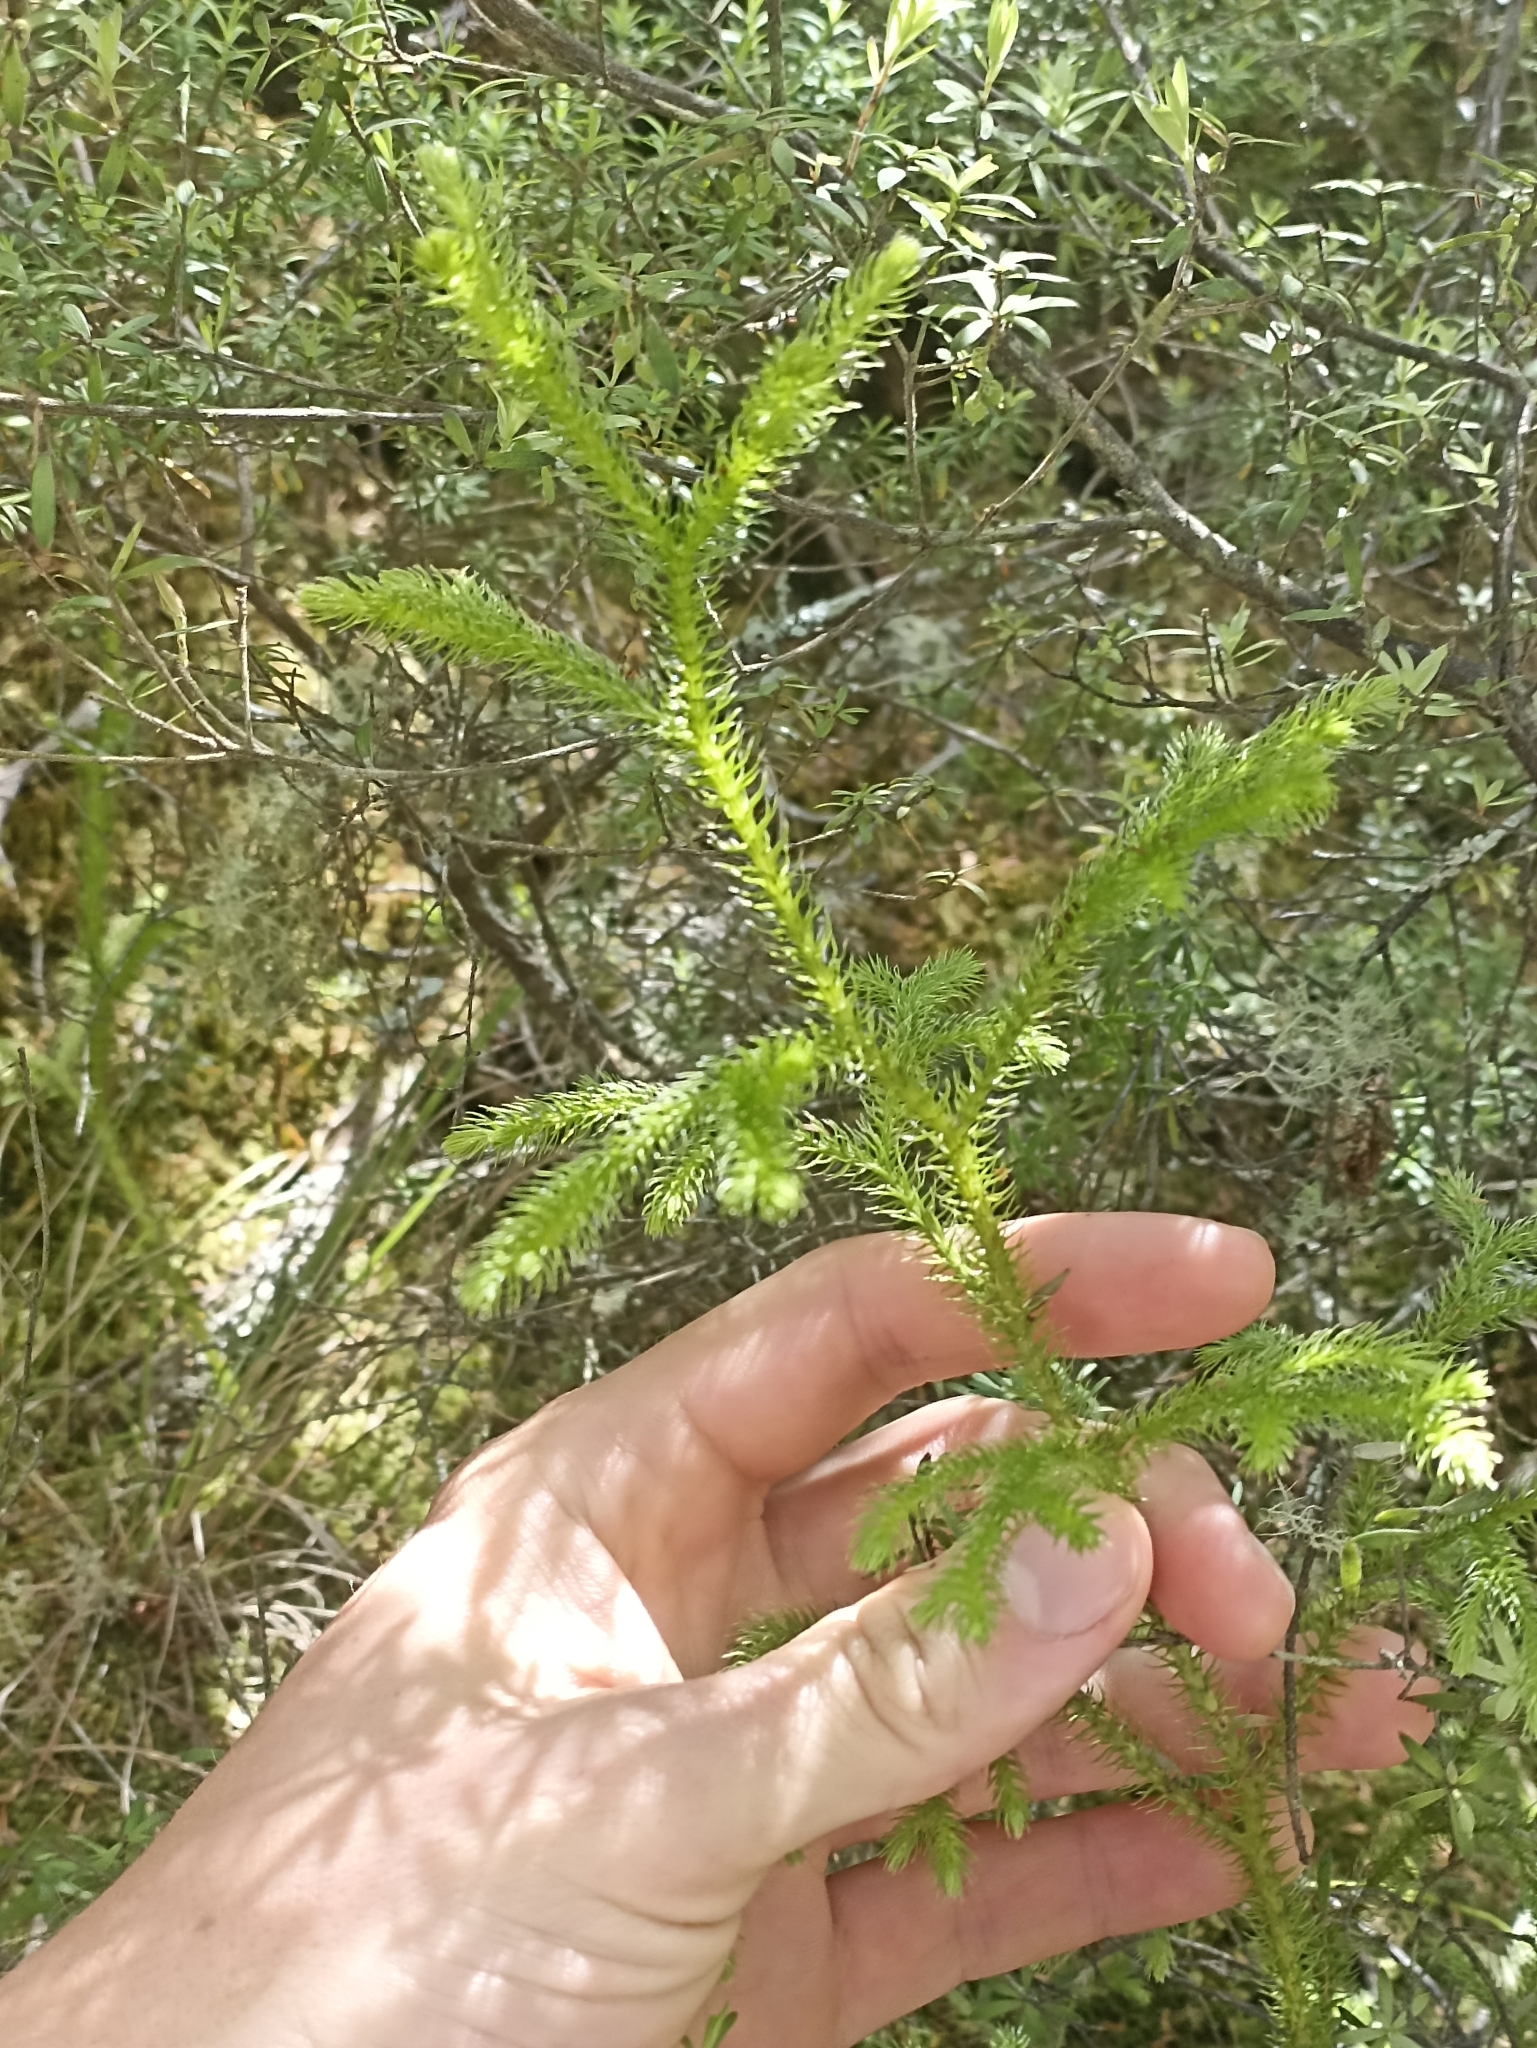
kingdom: Plantae
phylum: Tracheophyta
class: Lycopodiopsida
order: Lycopodiales
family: Lycopodiaceae
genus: Palhinhaea
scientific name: Palhinhaea cernua
